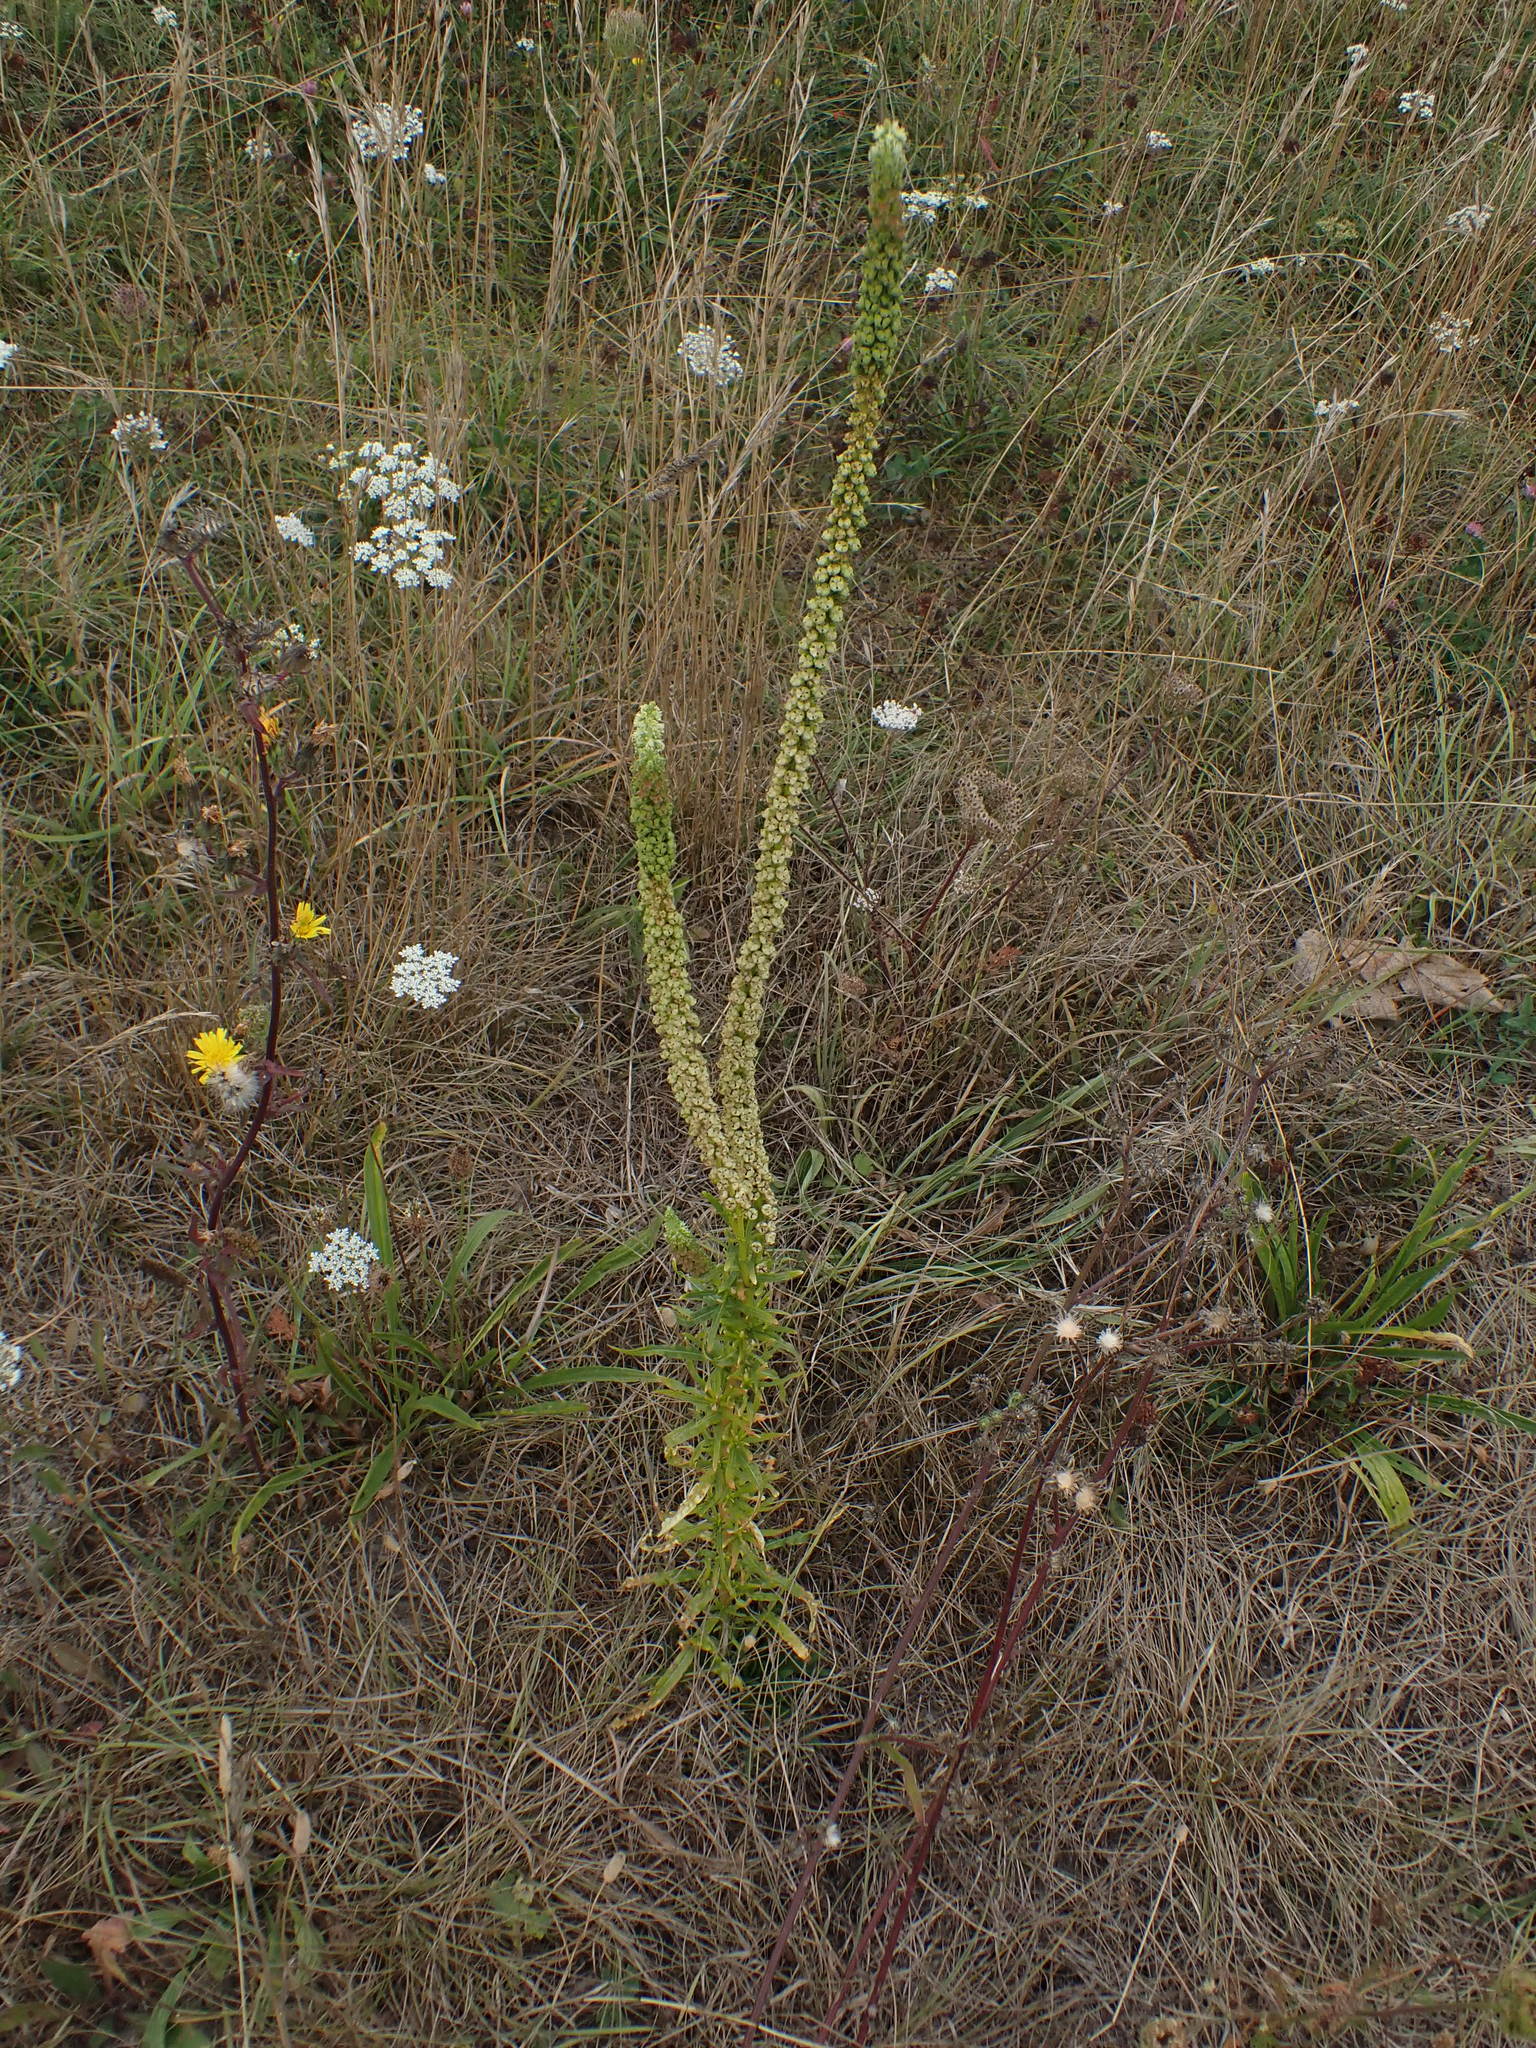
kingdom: Plantae
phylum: Tracheophyta
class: Magnoliopsida
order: Brassicales
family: Resedaceae
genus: Reseda
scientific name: Reseda luteola
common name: Weld
